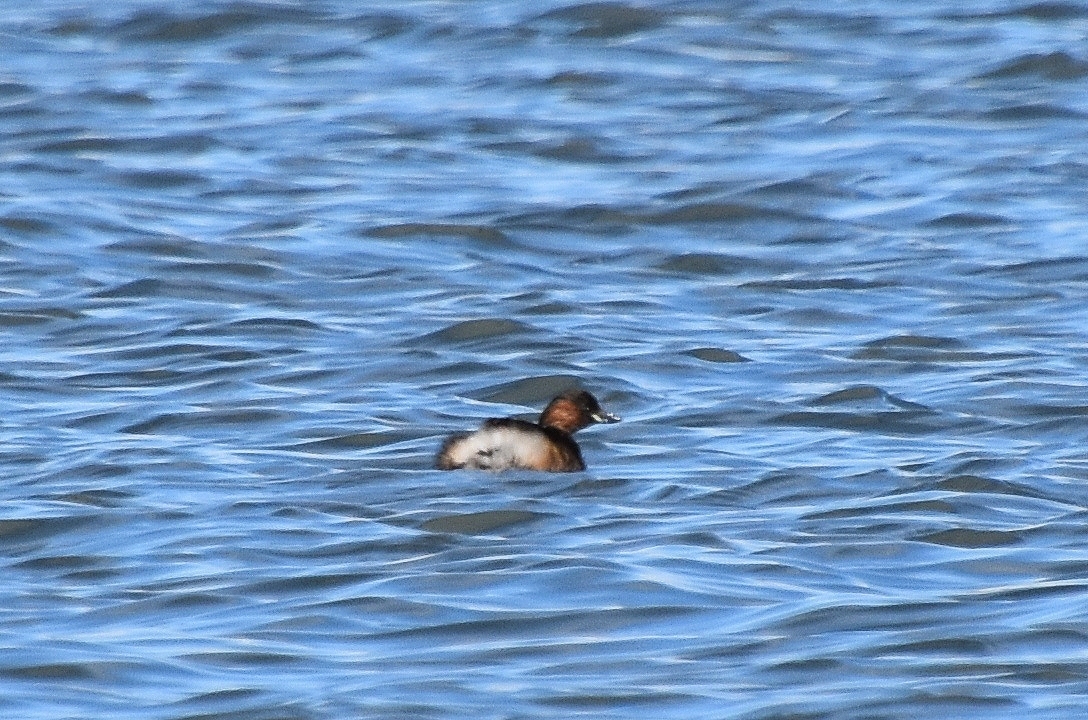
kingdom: Animalia
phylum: Chordata
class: Aves
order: Podicipediformes
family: Podicipedidae
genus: Tachybaptus
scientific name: Tachybaptus ruficollis
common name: Little grebe
